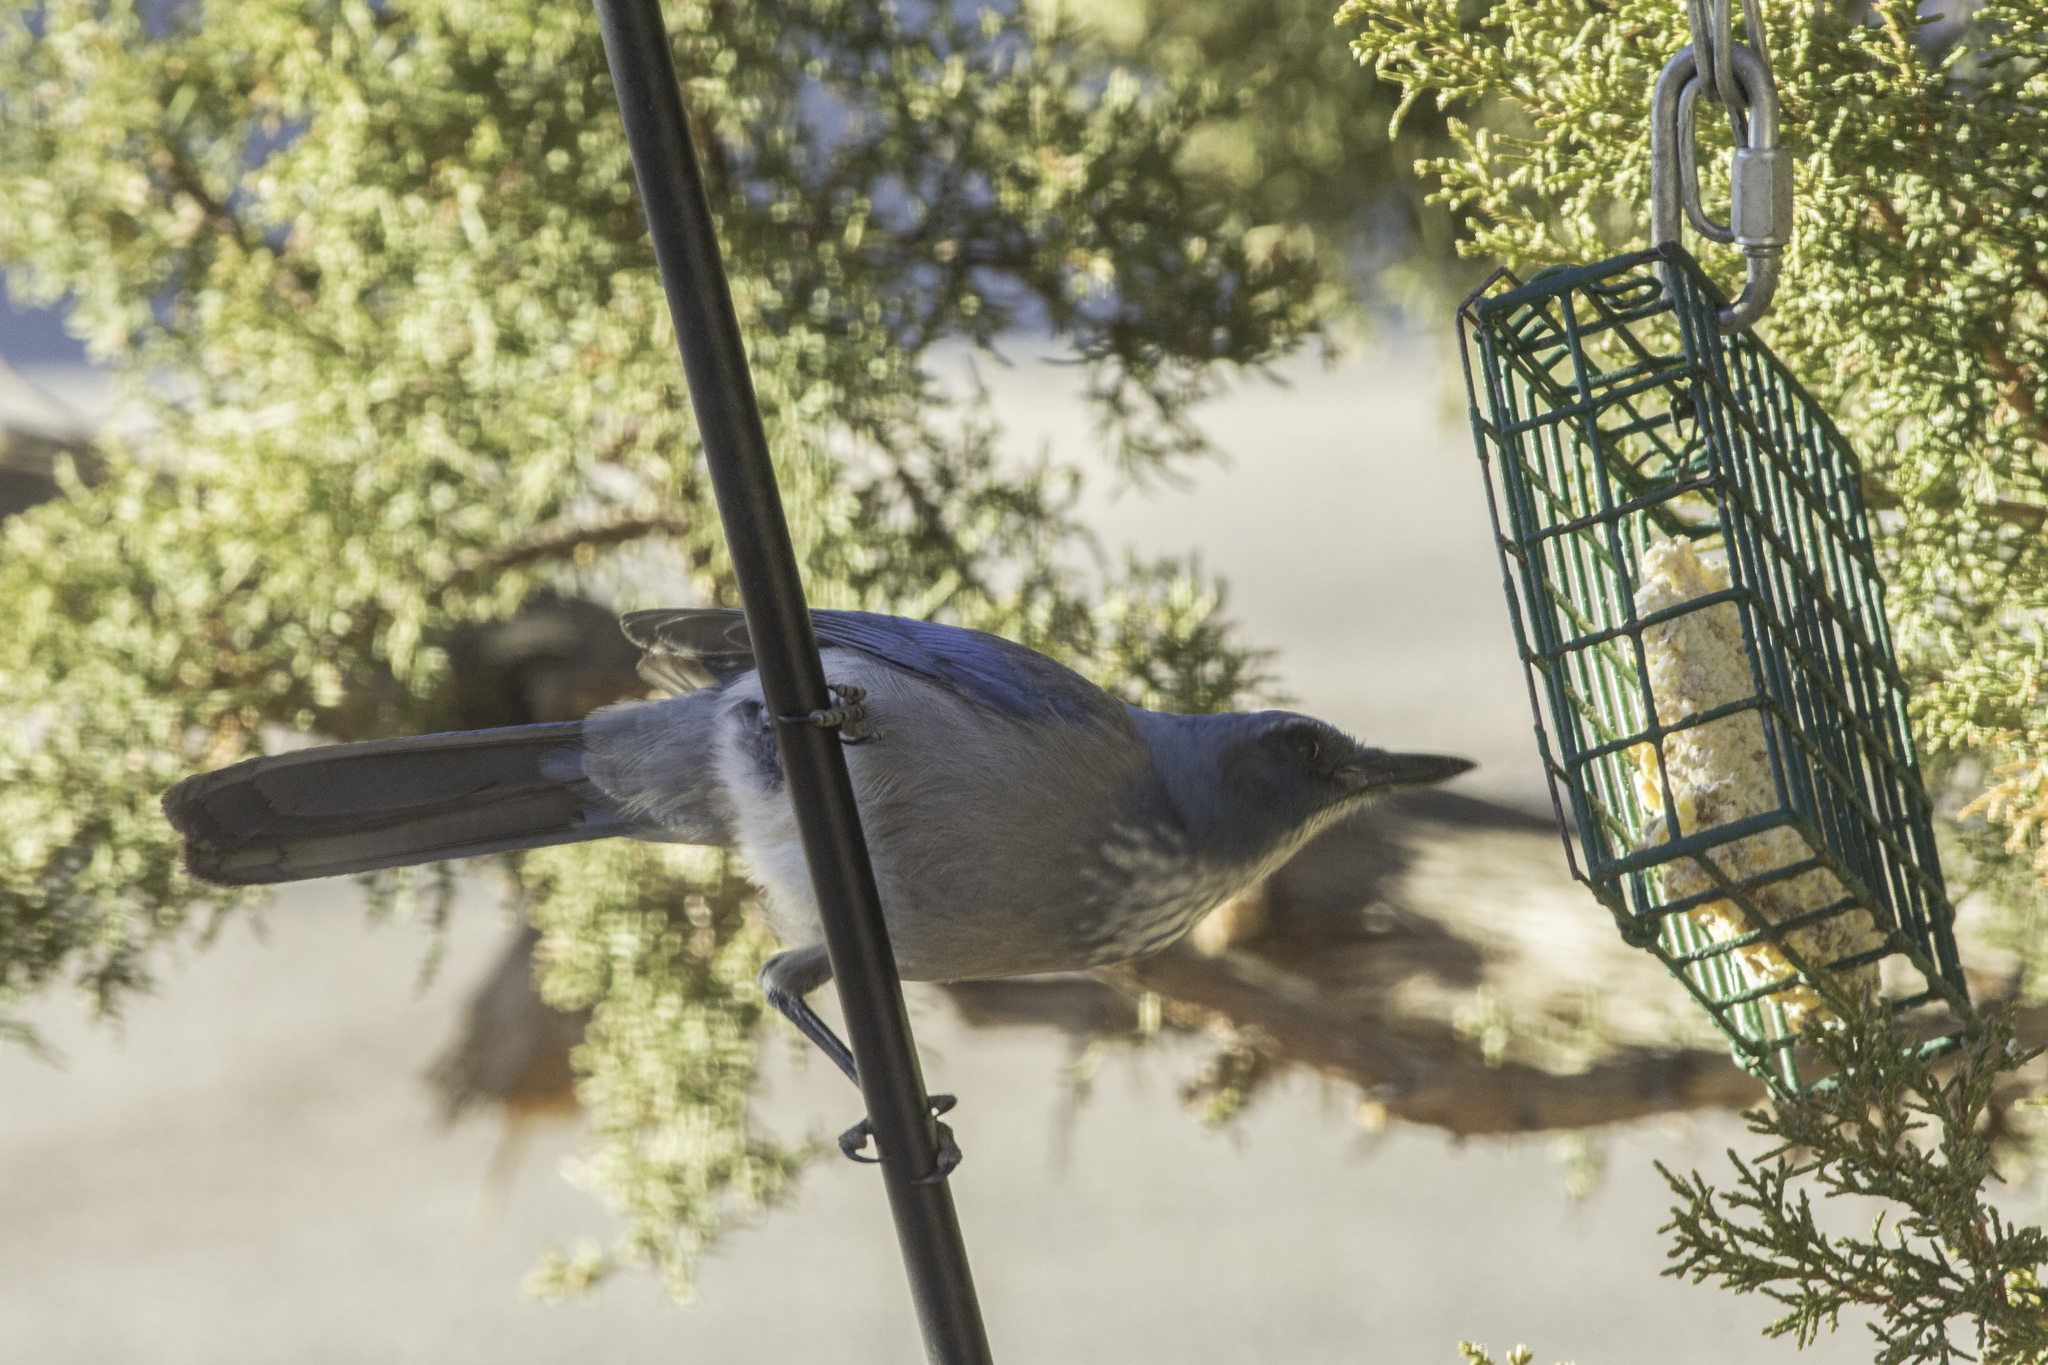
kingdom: Animalia
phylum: Chordata
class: Aves
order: Passeriformes
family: Corvidae
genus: Aphelocoma
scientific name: Aphelocoma woodhouseii
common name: Woodhouse's scrub-jay
